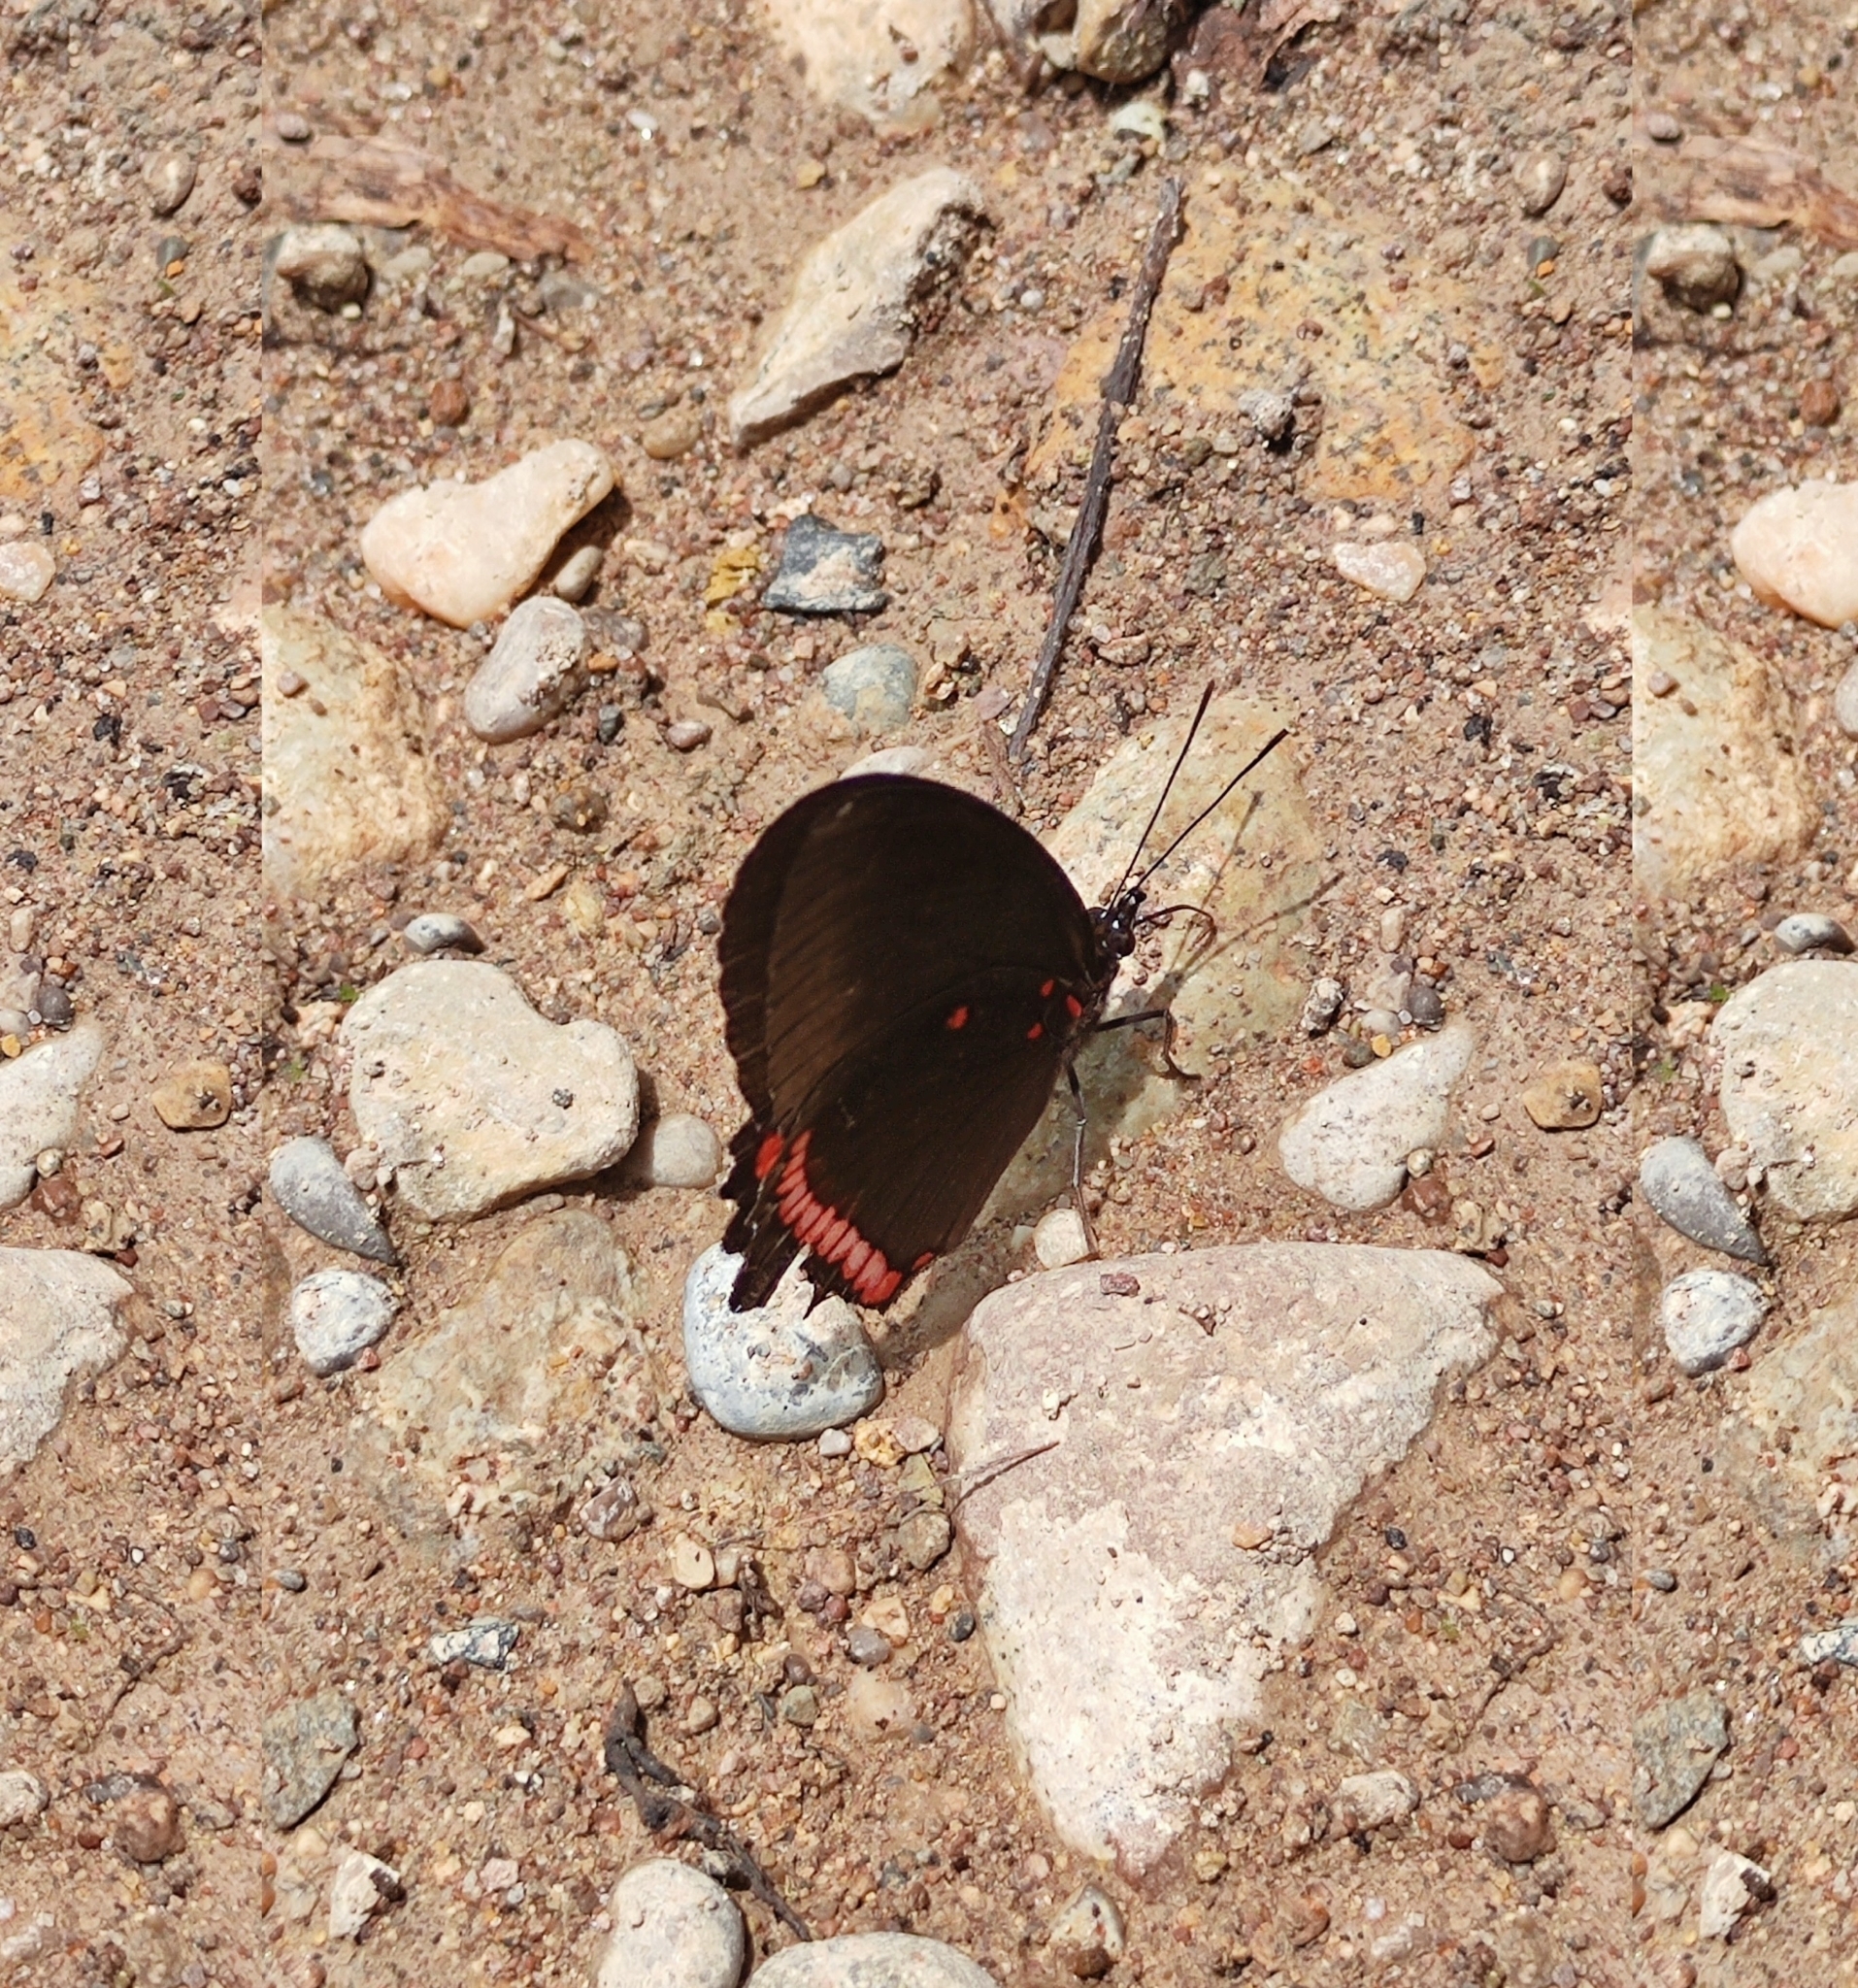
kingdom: Animalia
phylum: Arthropoda
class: Insecta
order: Lepidoptera
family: Nymphalidae
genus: Biblis
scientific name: Biblis aganisa
